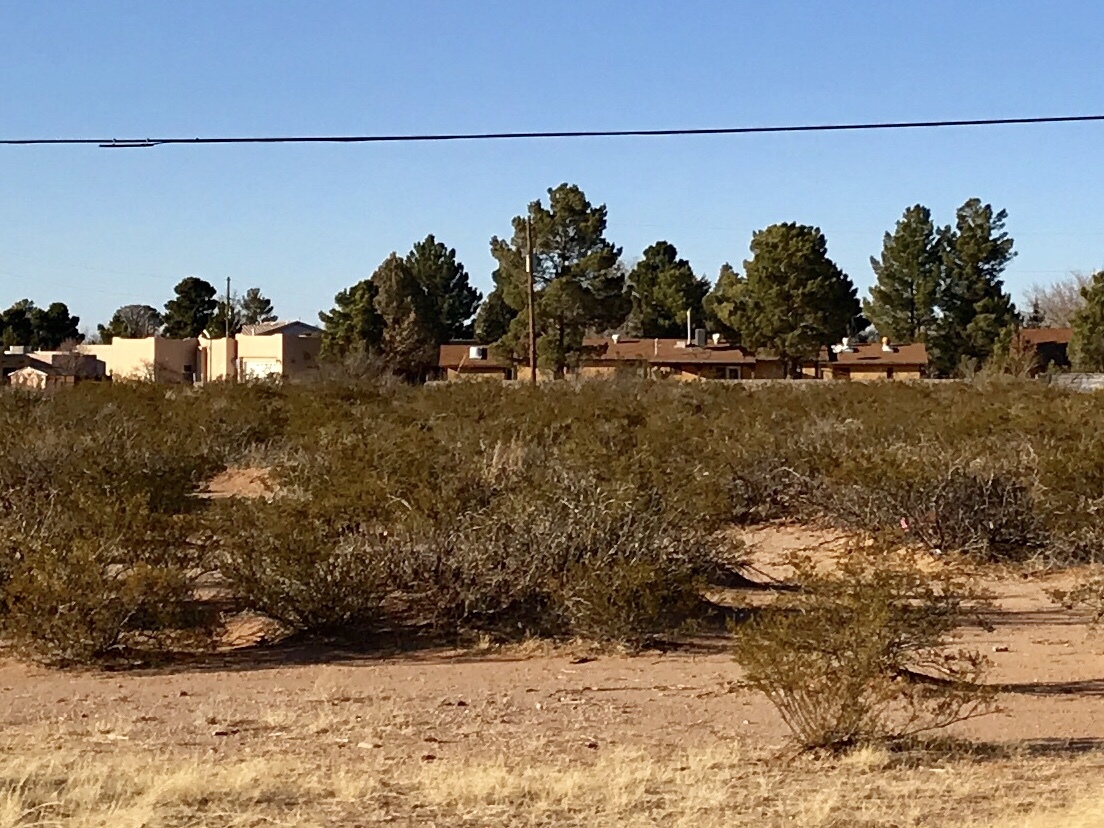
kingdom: Plantae
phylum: Tracheophyta
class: Magnoliopsida
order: Zygophyllales
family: Zygophyllaceae
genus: Larrea
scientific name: Larrea tridentata
